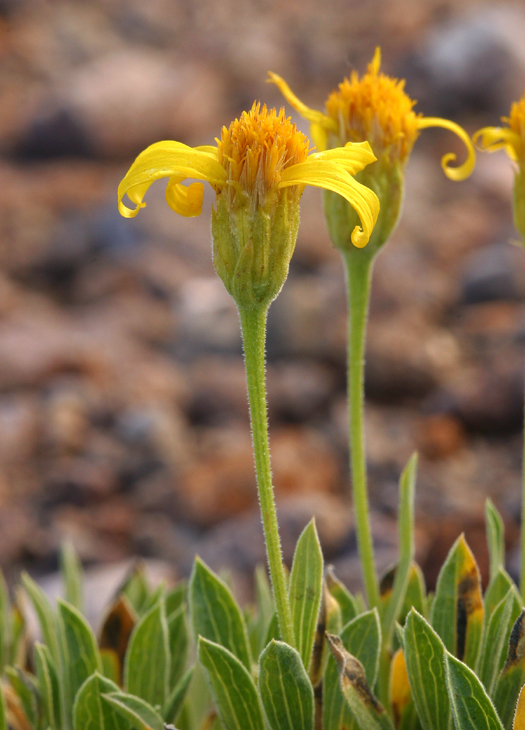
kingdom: Plantae
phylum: Tracheophyta
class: Magnoliopsida
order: Asterales
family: Asteraceae
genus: Stenotus
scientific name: Stenotus acaulis
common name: Stemless goldenweed
